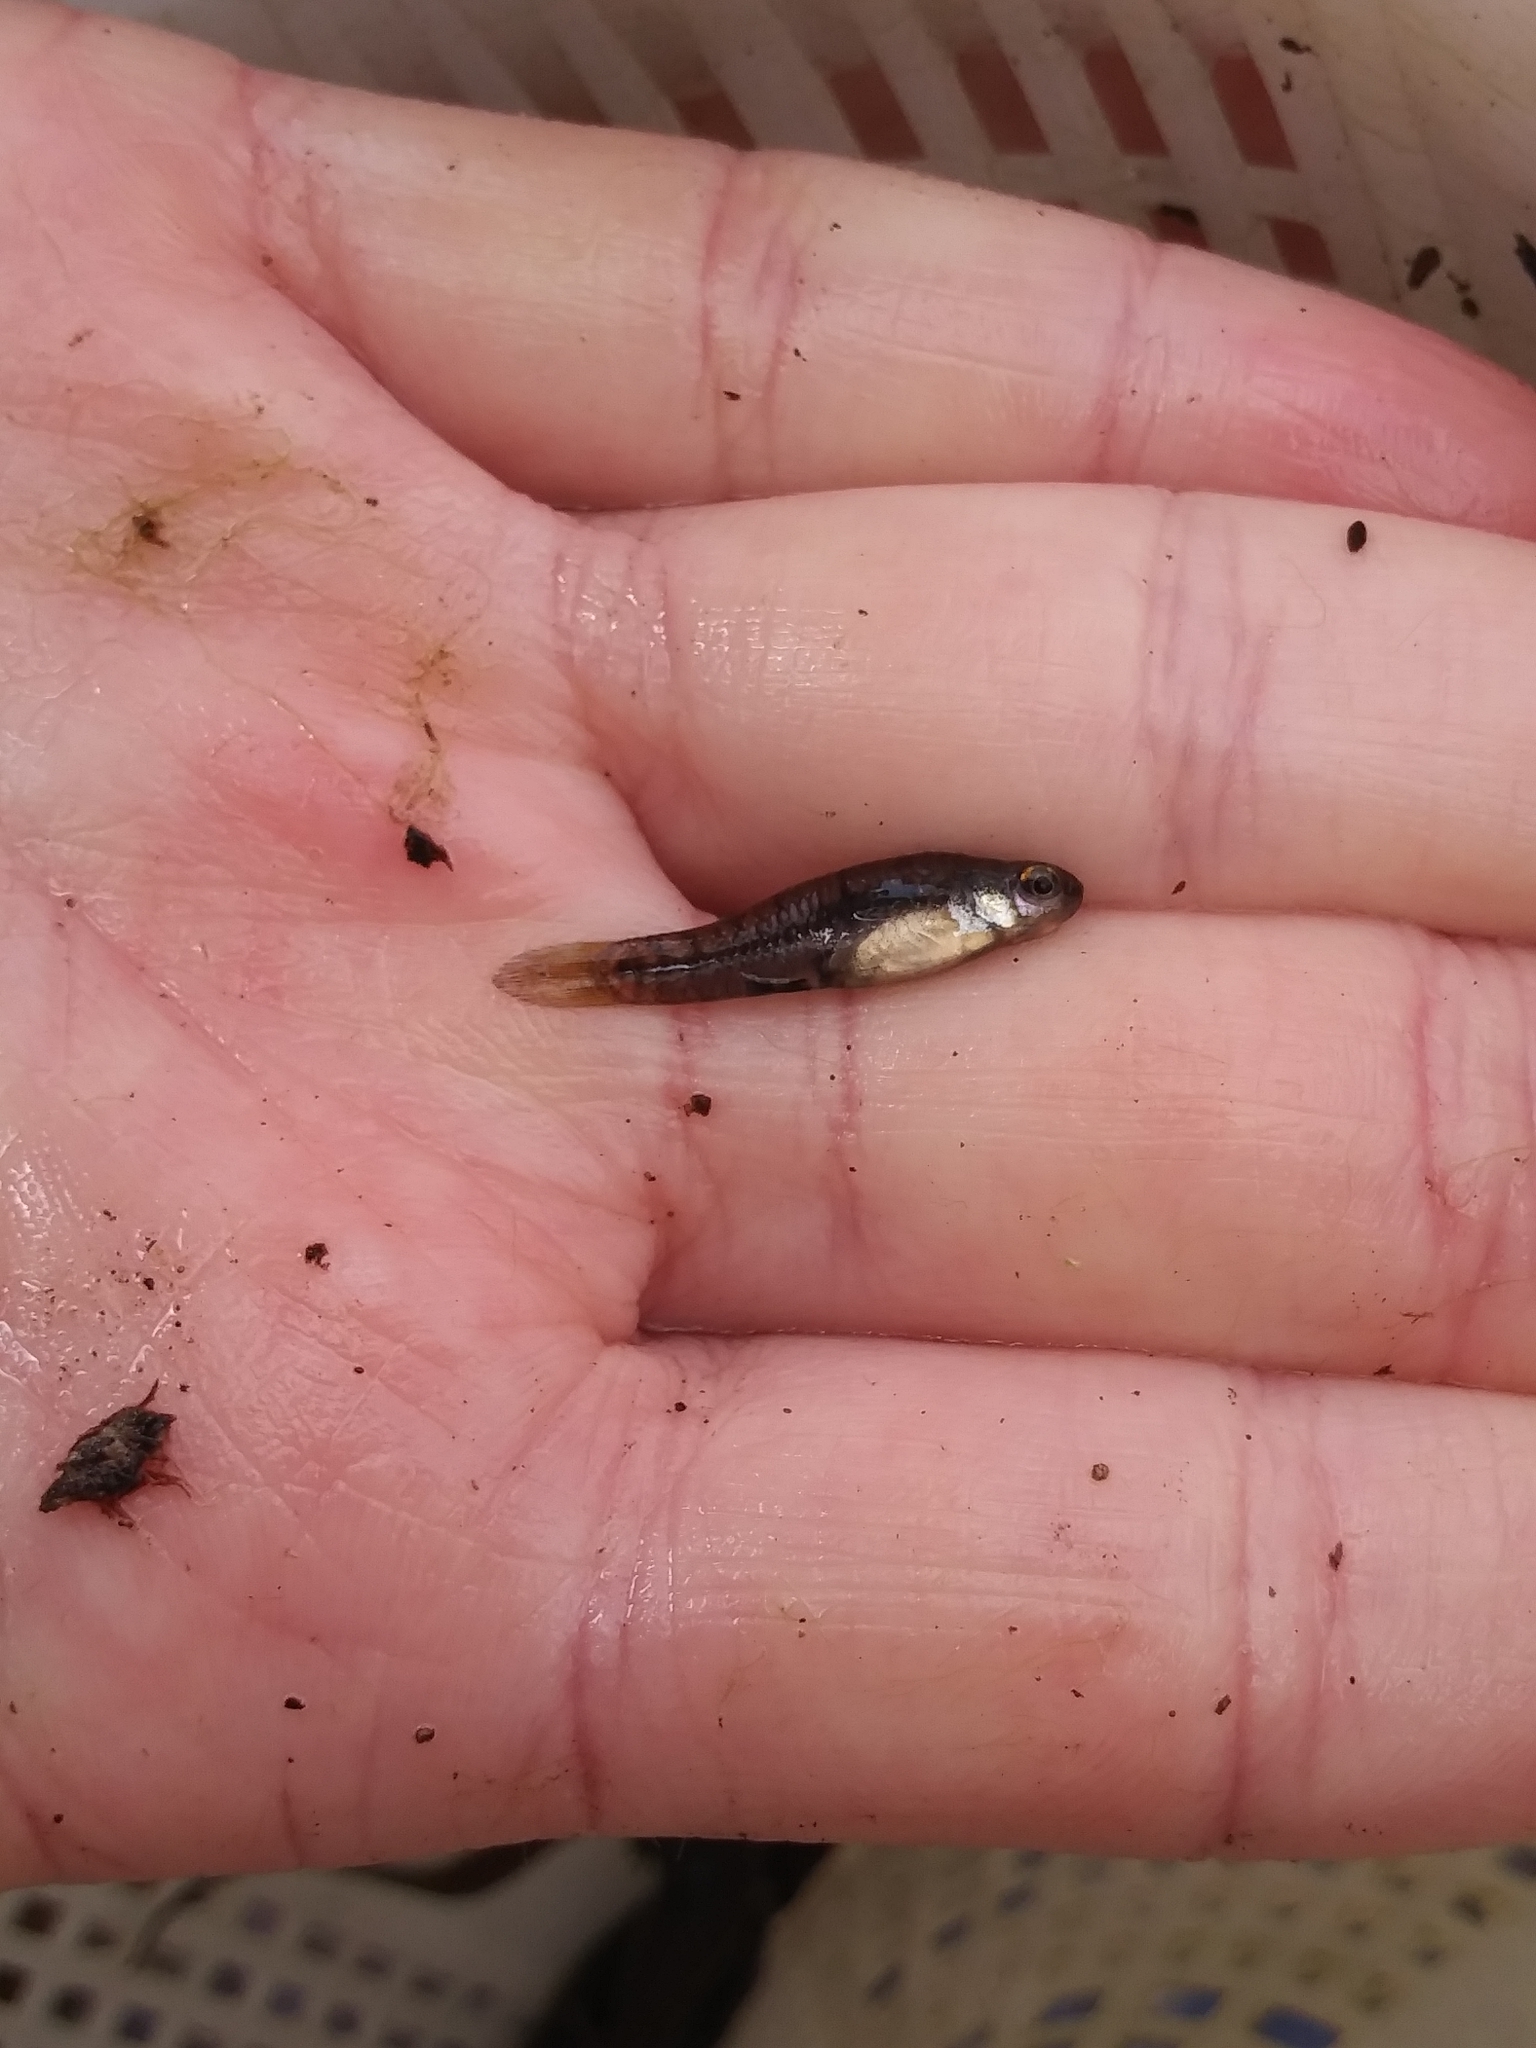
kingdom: Animalia
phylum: Chordata
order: Cyprinodontiformes
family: Poeciliidae
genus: Heterandria
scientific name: Heterandria formosa
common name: Least killifish
